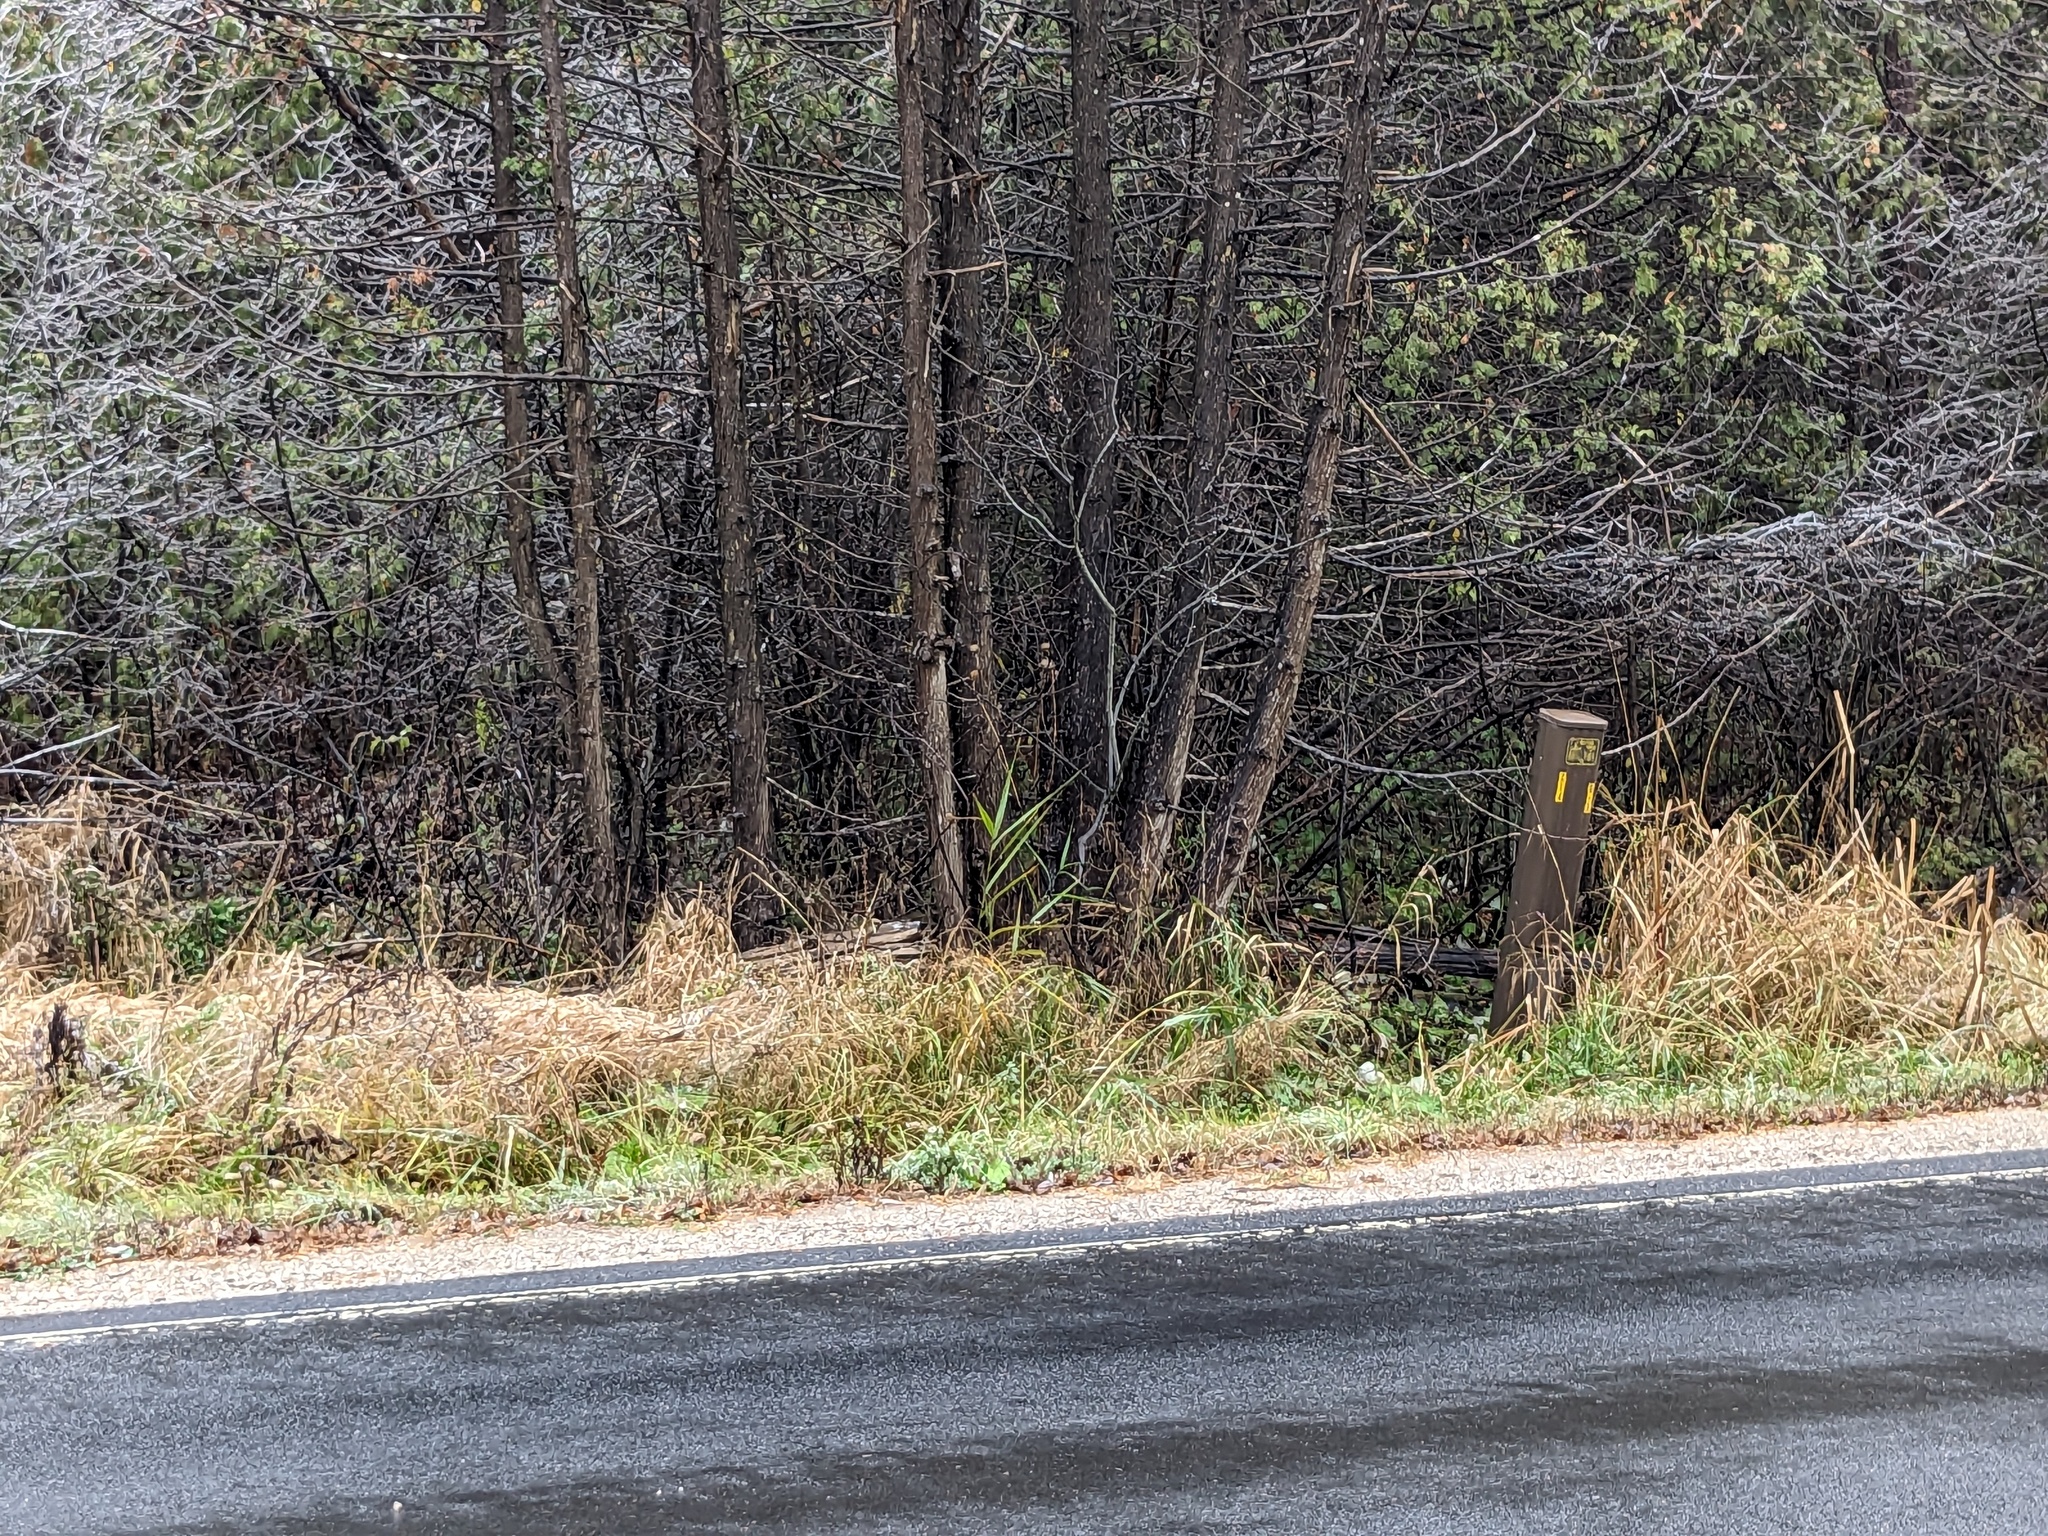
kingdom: Plantae
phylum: Tracheophyta
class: Liliopsida
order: Poales
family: Poaceae
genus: Phragmites
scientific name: Phragmites australis
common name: Common reed
